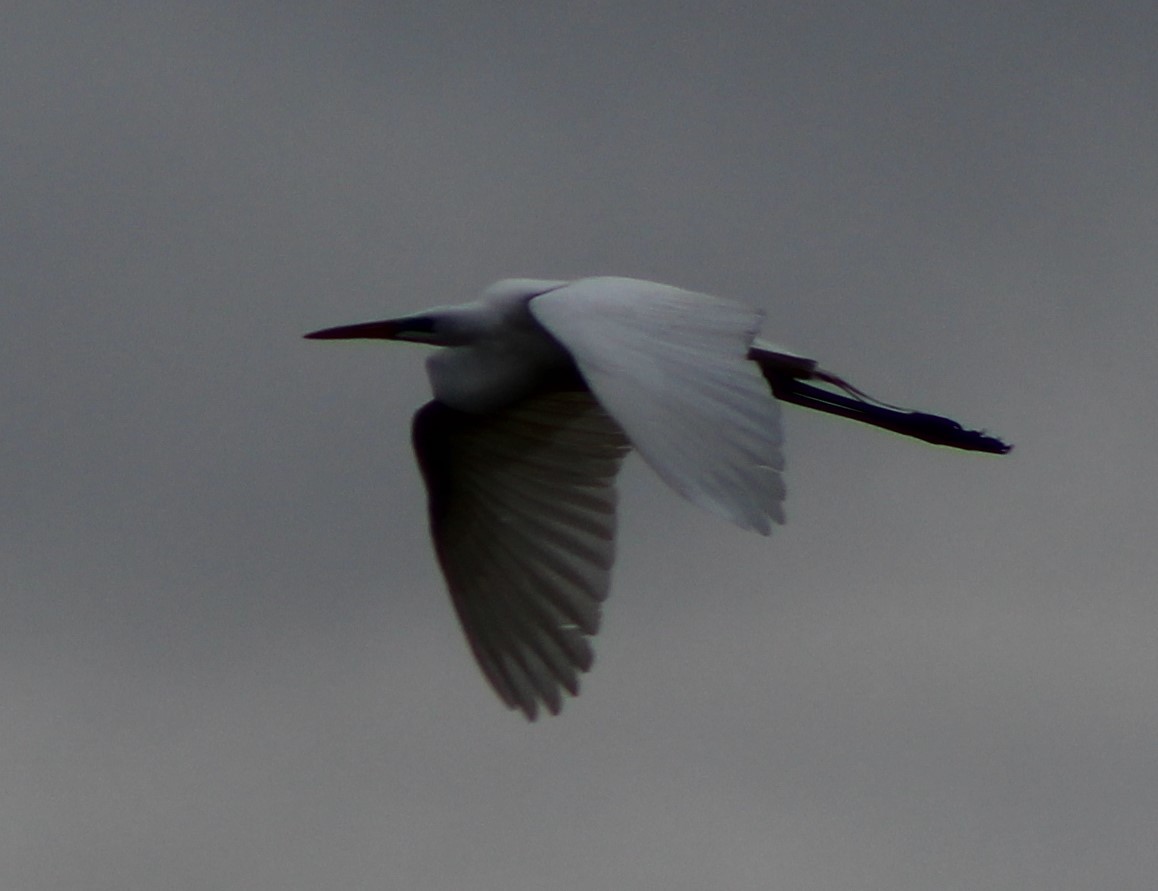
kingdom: Animalia
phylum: Chordata
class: Aves
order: Pelecaniformes
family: Ardeidae
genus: Ardea
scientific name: Ardea herodias
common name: Great blue heron
